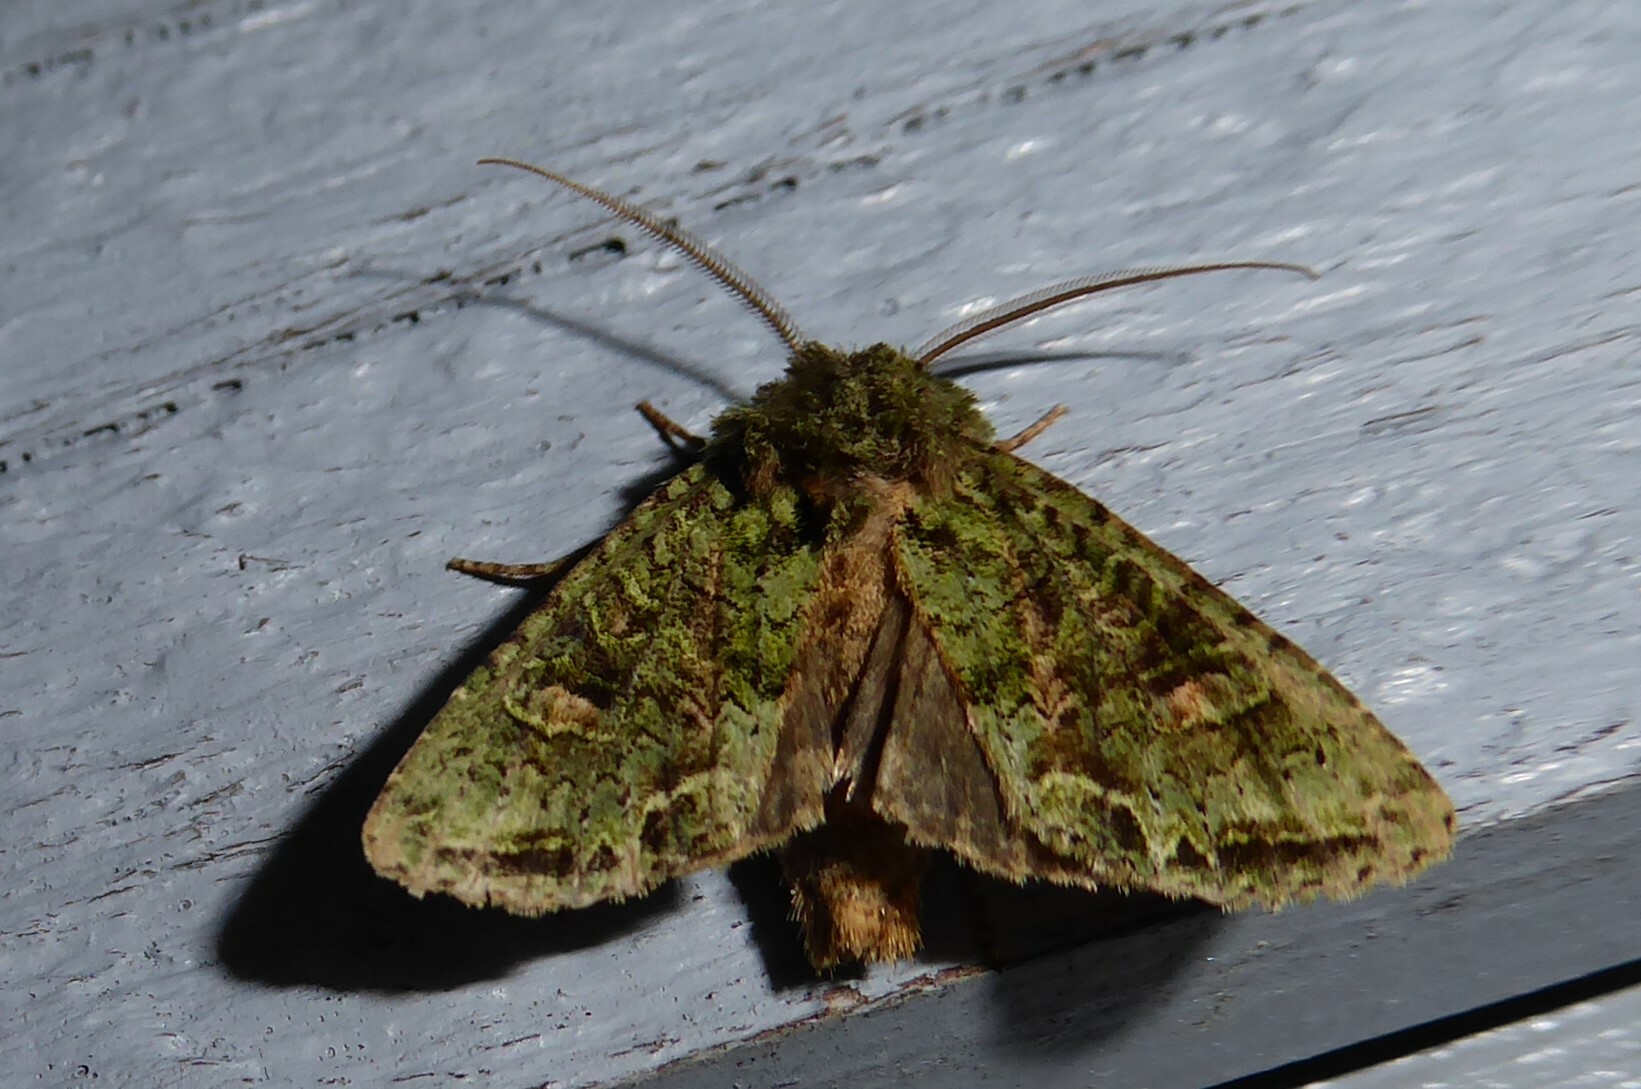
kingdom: Animalia
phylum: Arthropoda
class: Insecta
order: Lepidoptera
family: Noctuidae
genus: Ichneutica
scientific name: Ichneutica
